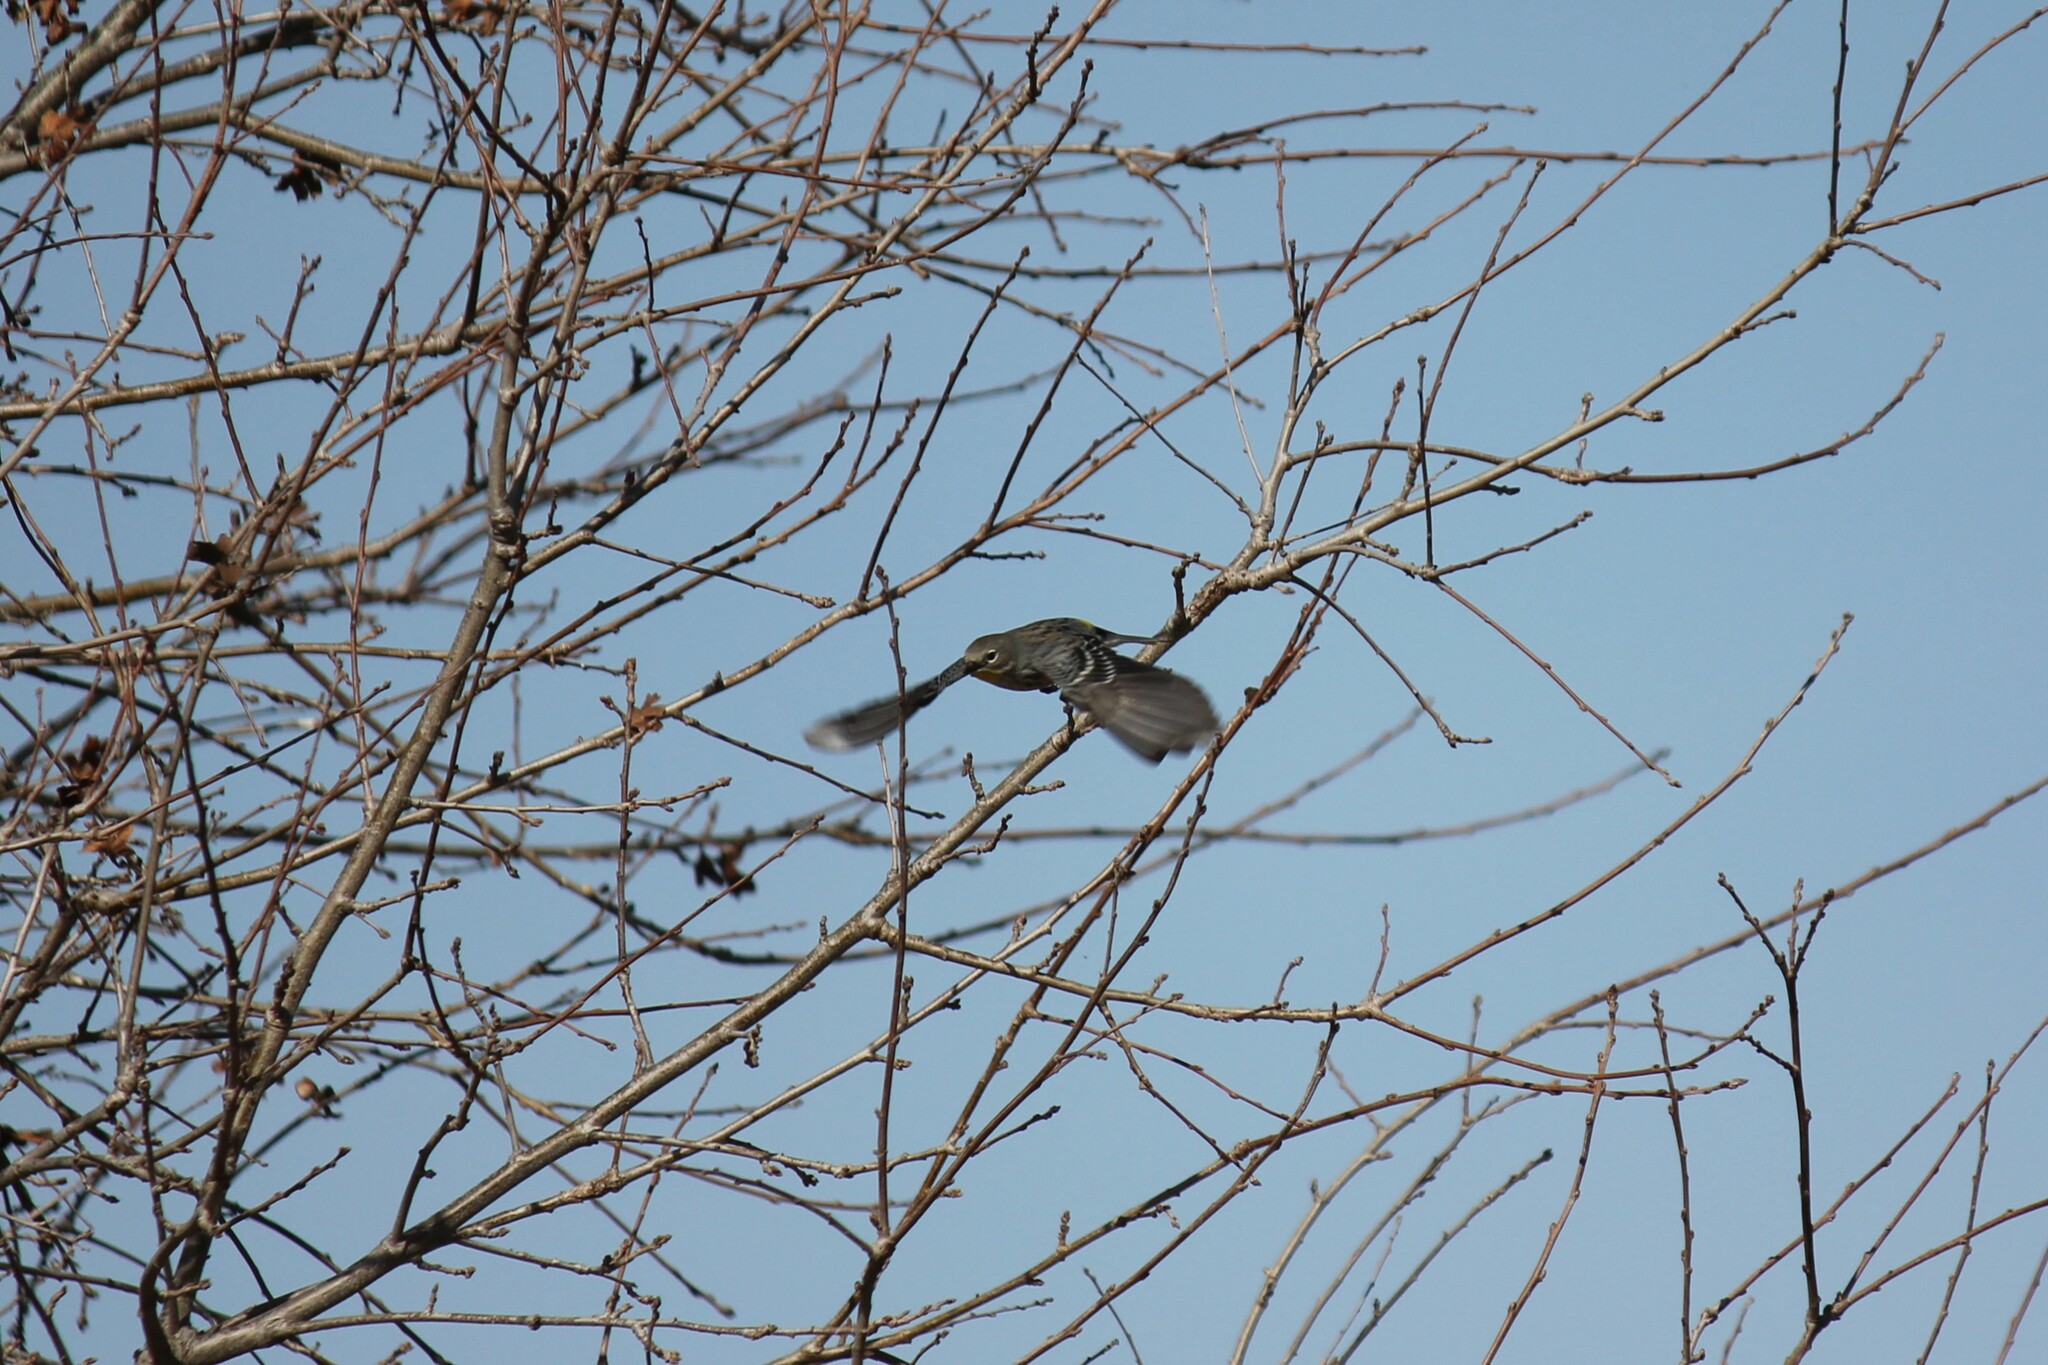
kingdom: Animalia
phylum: Chordata
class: Aves
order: Passeriformes
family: Parulidae
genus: Setophaga
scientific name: Setophaga coronata
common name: Myrtle warbler
